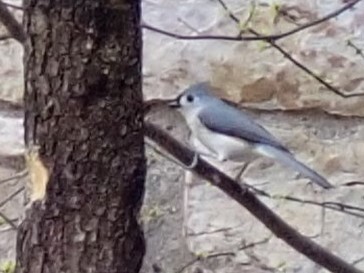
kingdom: Animalia
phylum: Chordata
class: Aves
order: Passeriformes
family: Paridae
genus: Baeolophus
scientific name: Baeolophus bicolor
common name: Tufted titmouse
